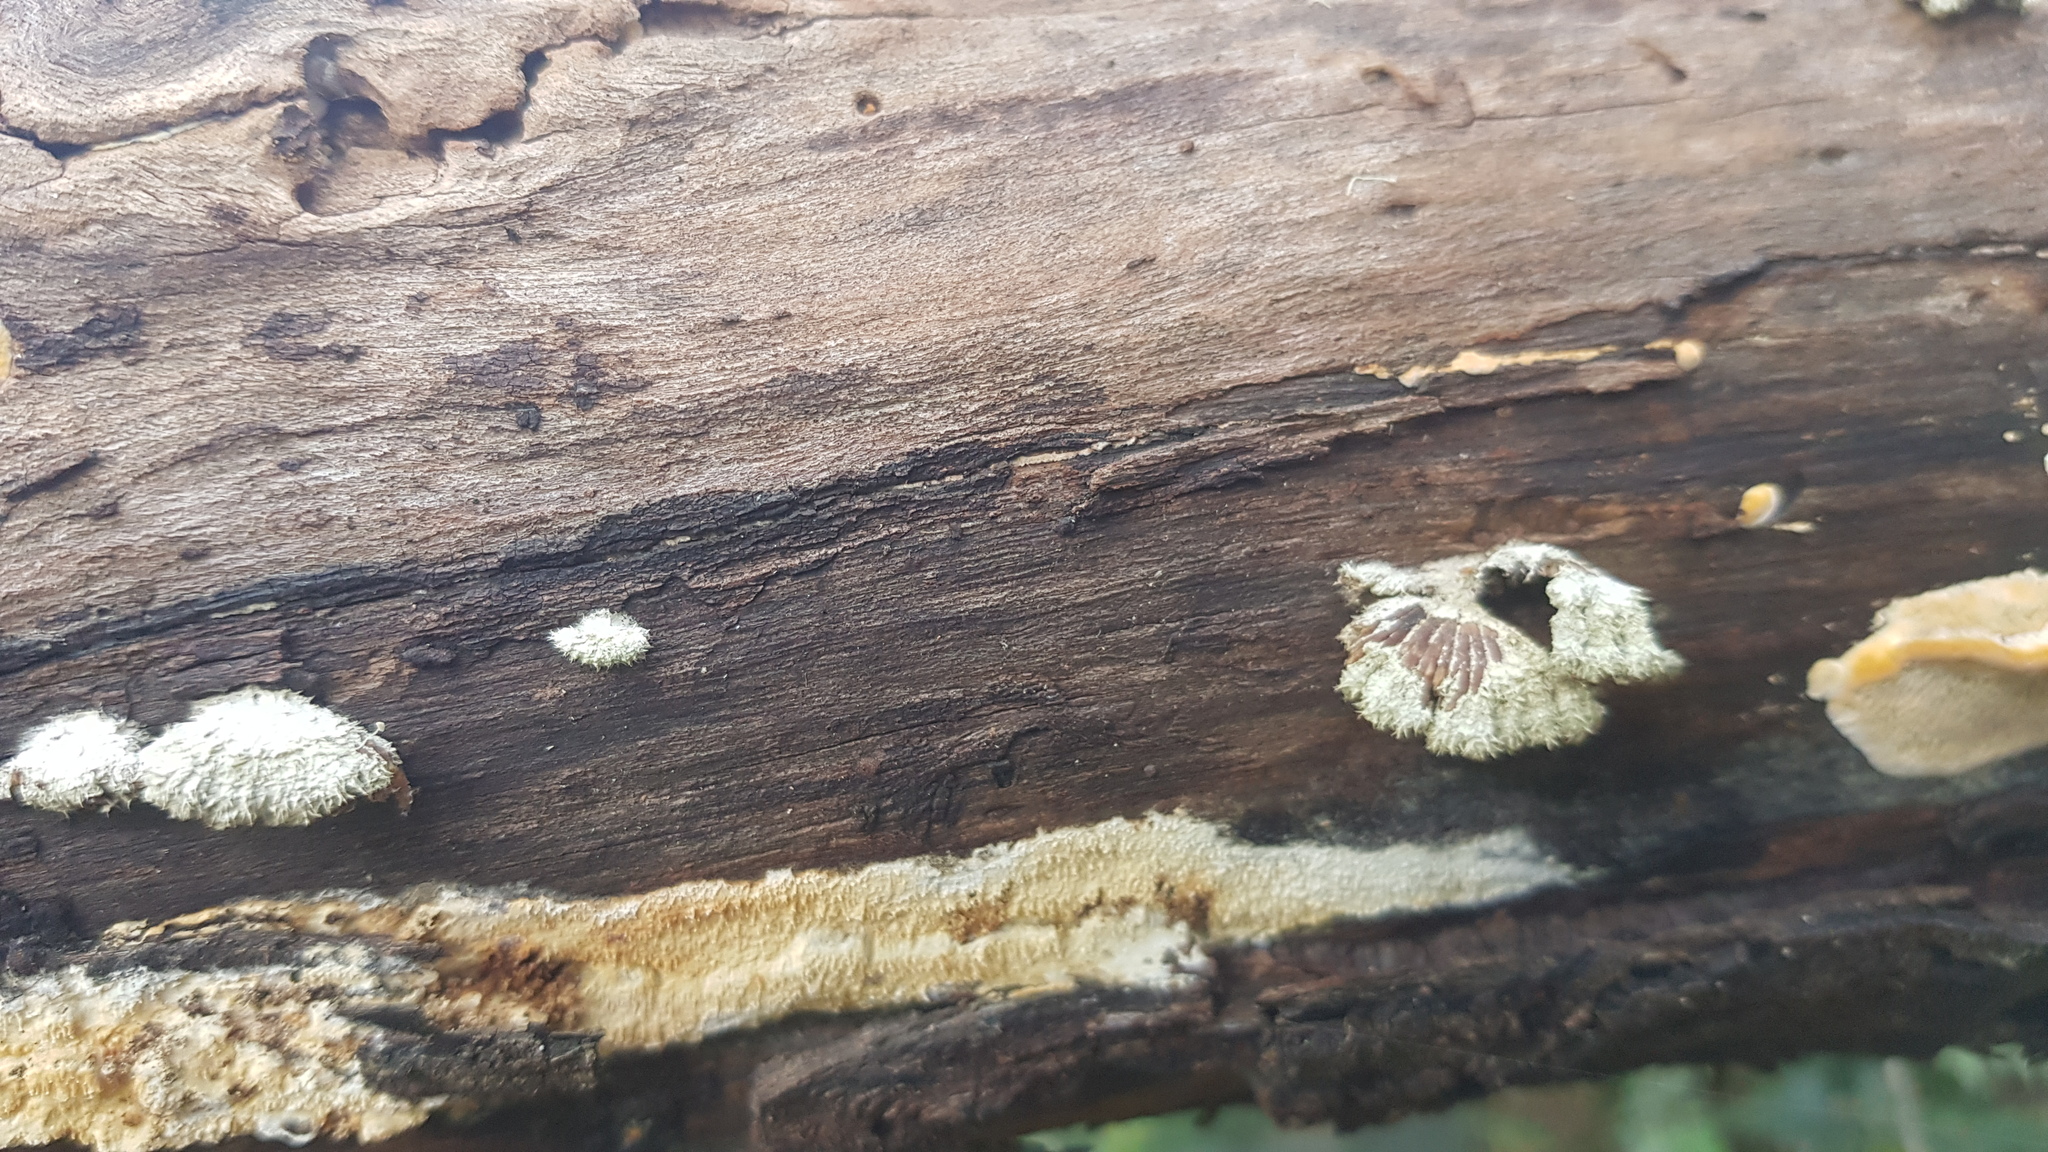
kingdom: Fungi
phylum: Basidiomycota
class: Agaricomycetes
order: Agaricales
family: Schizophyllaceae
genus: Schizophyllum
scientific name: Schizophyllum commune
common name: Common porecrust
